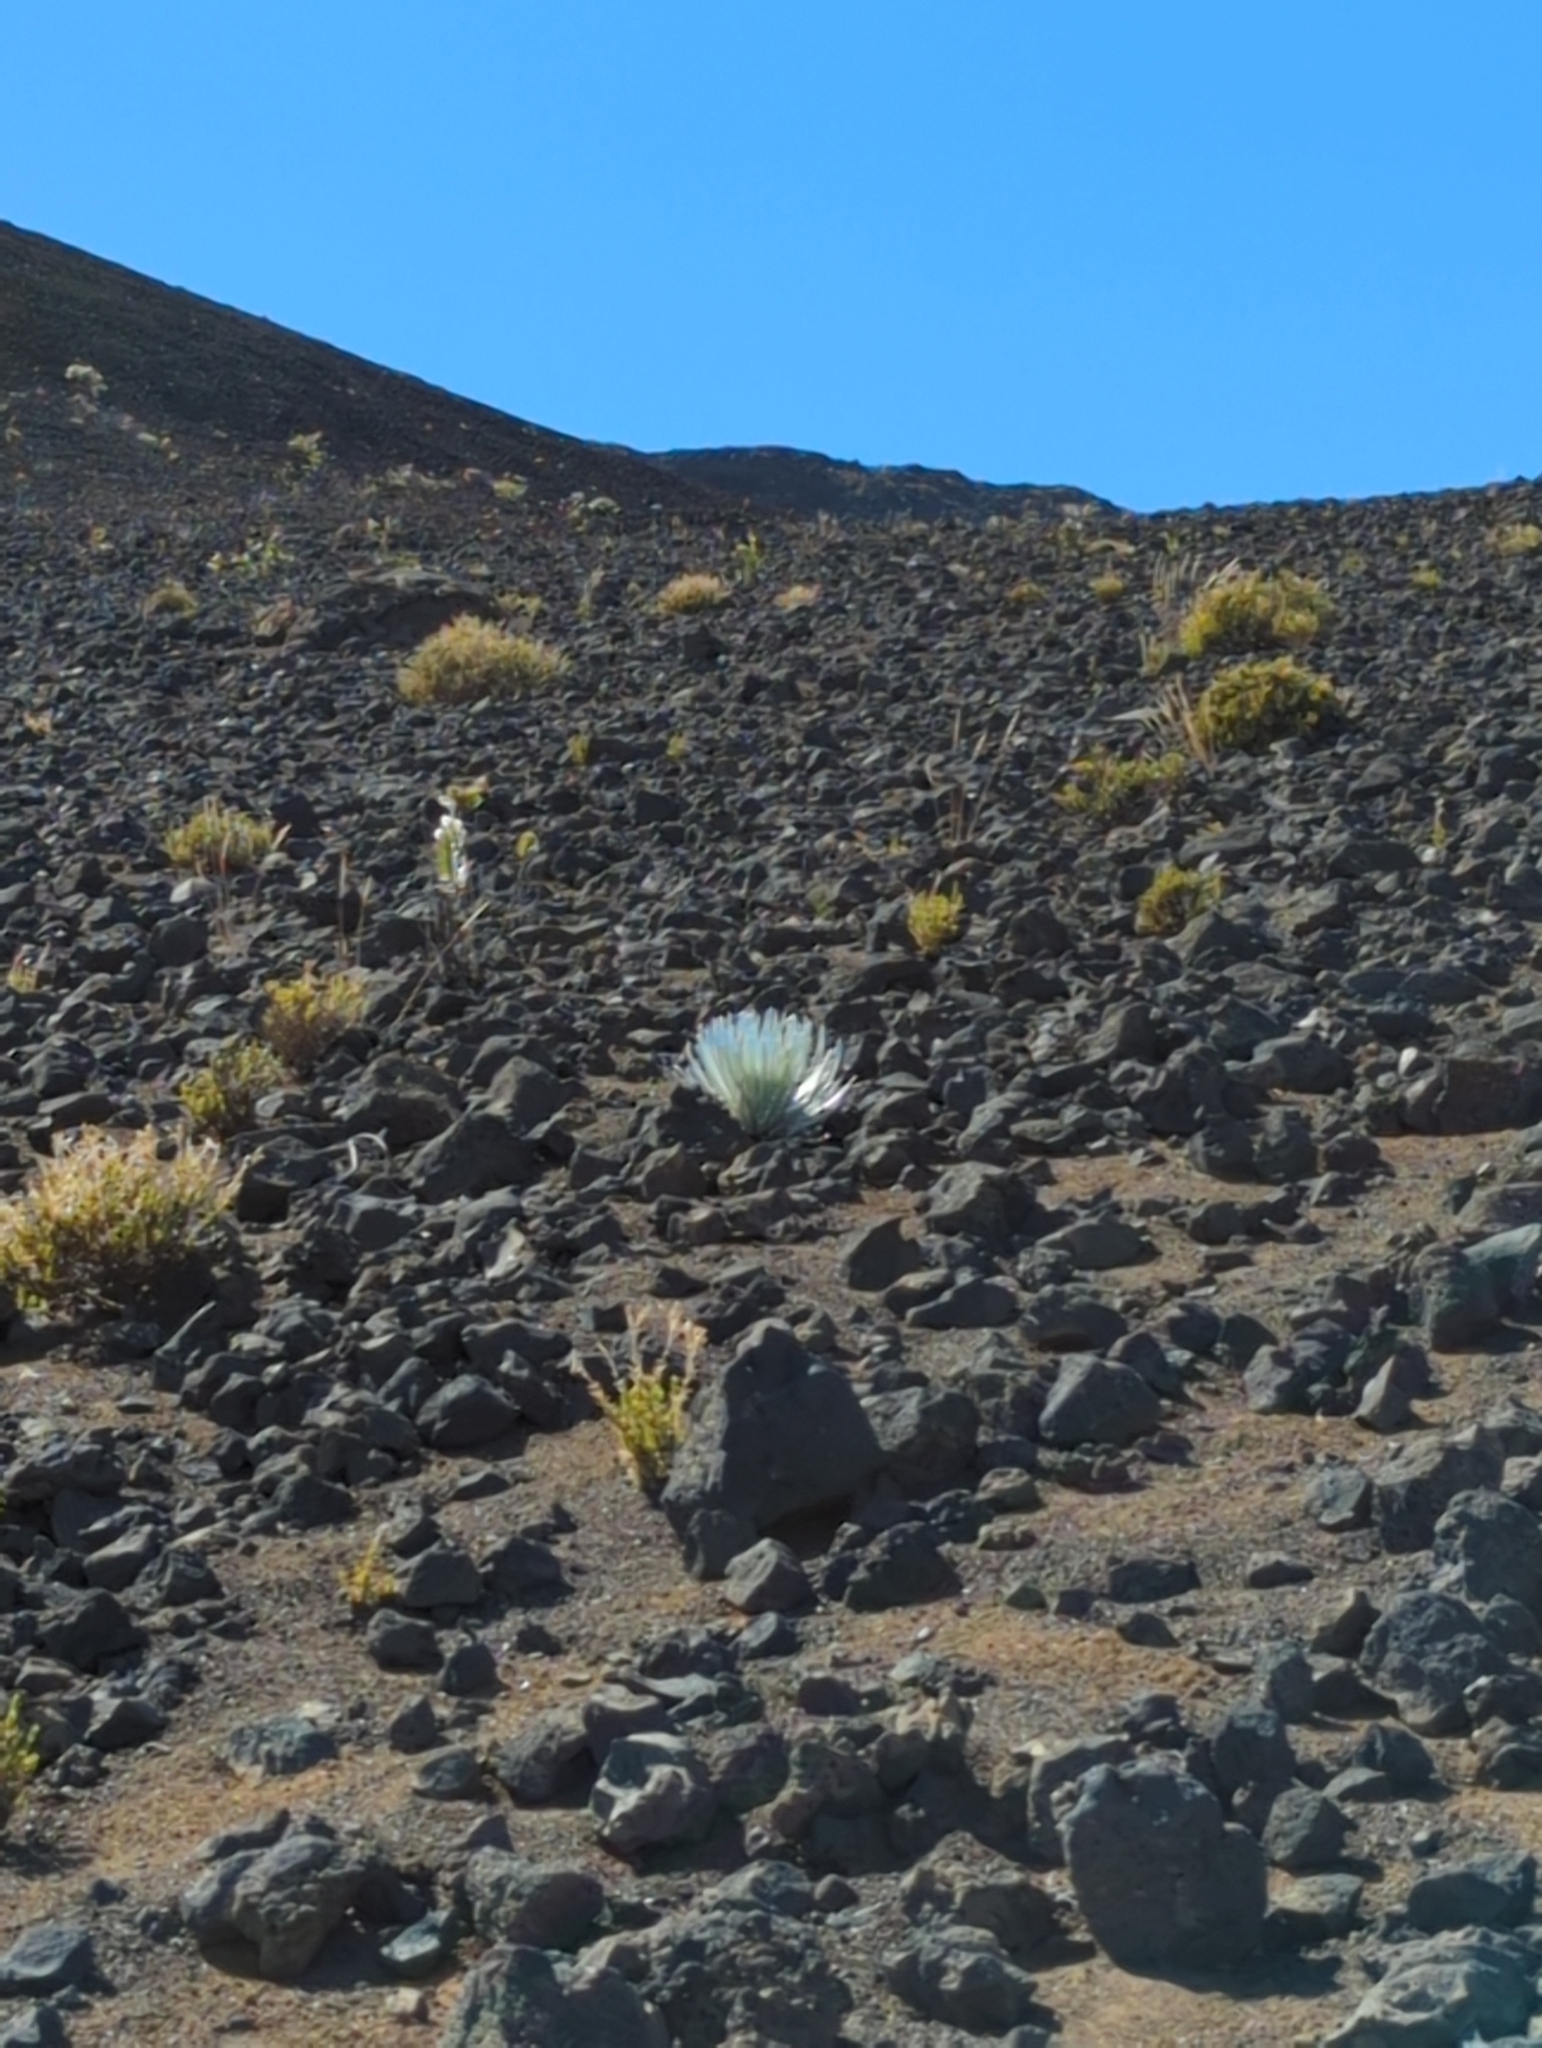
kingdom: Plantae
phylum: Tracheophyta
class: Magnoliopsida
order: Asterales
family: Asteraceae
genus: Argyroxiphium
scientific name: Argyroxiphium sandwicense
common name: Silversword
